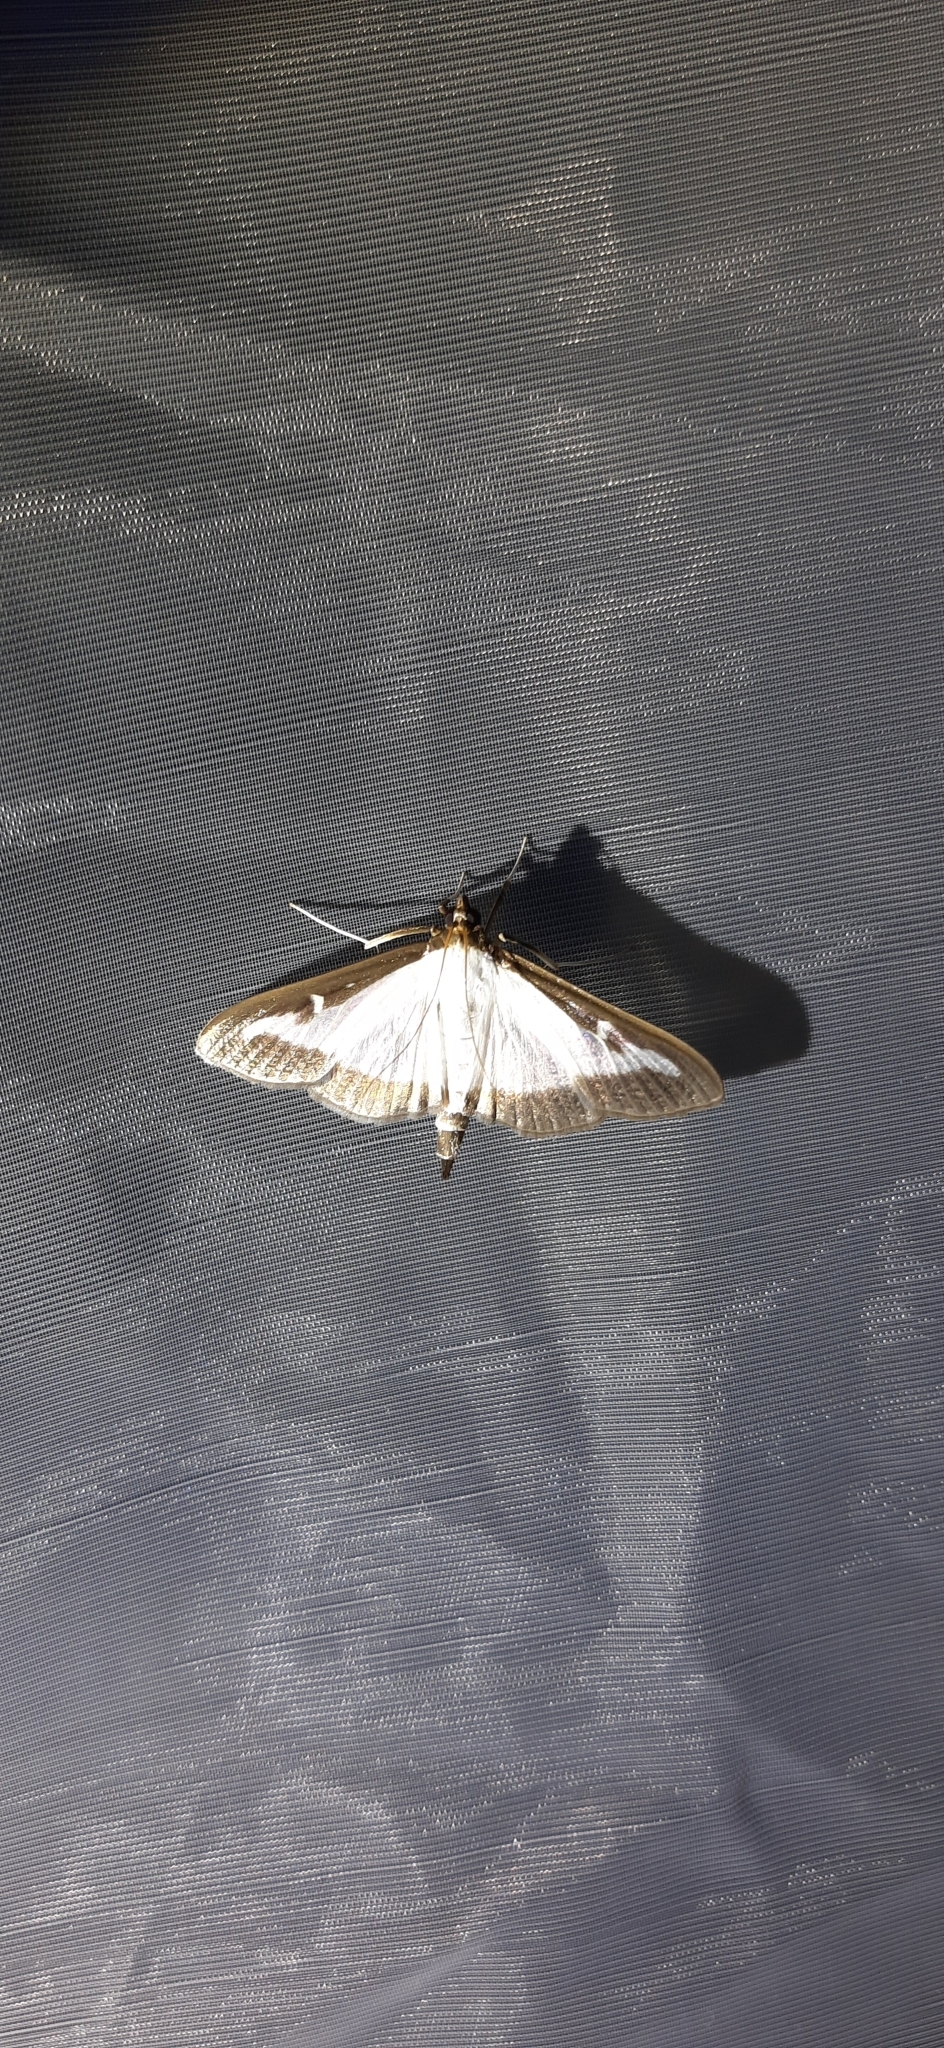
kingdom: Animalia
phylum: Arthropoda
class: Insecta
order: Lepidoptera
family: Crambidae
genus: Cydalima
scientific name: Cydalima perspectalis
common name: Box tree moth
